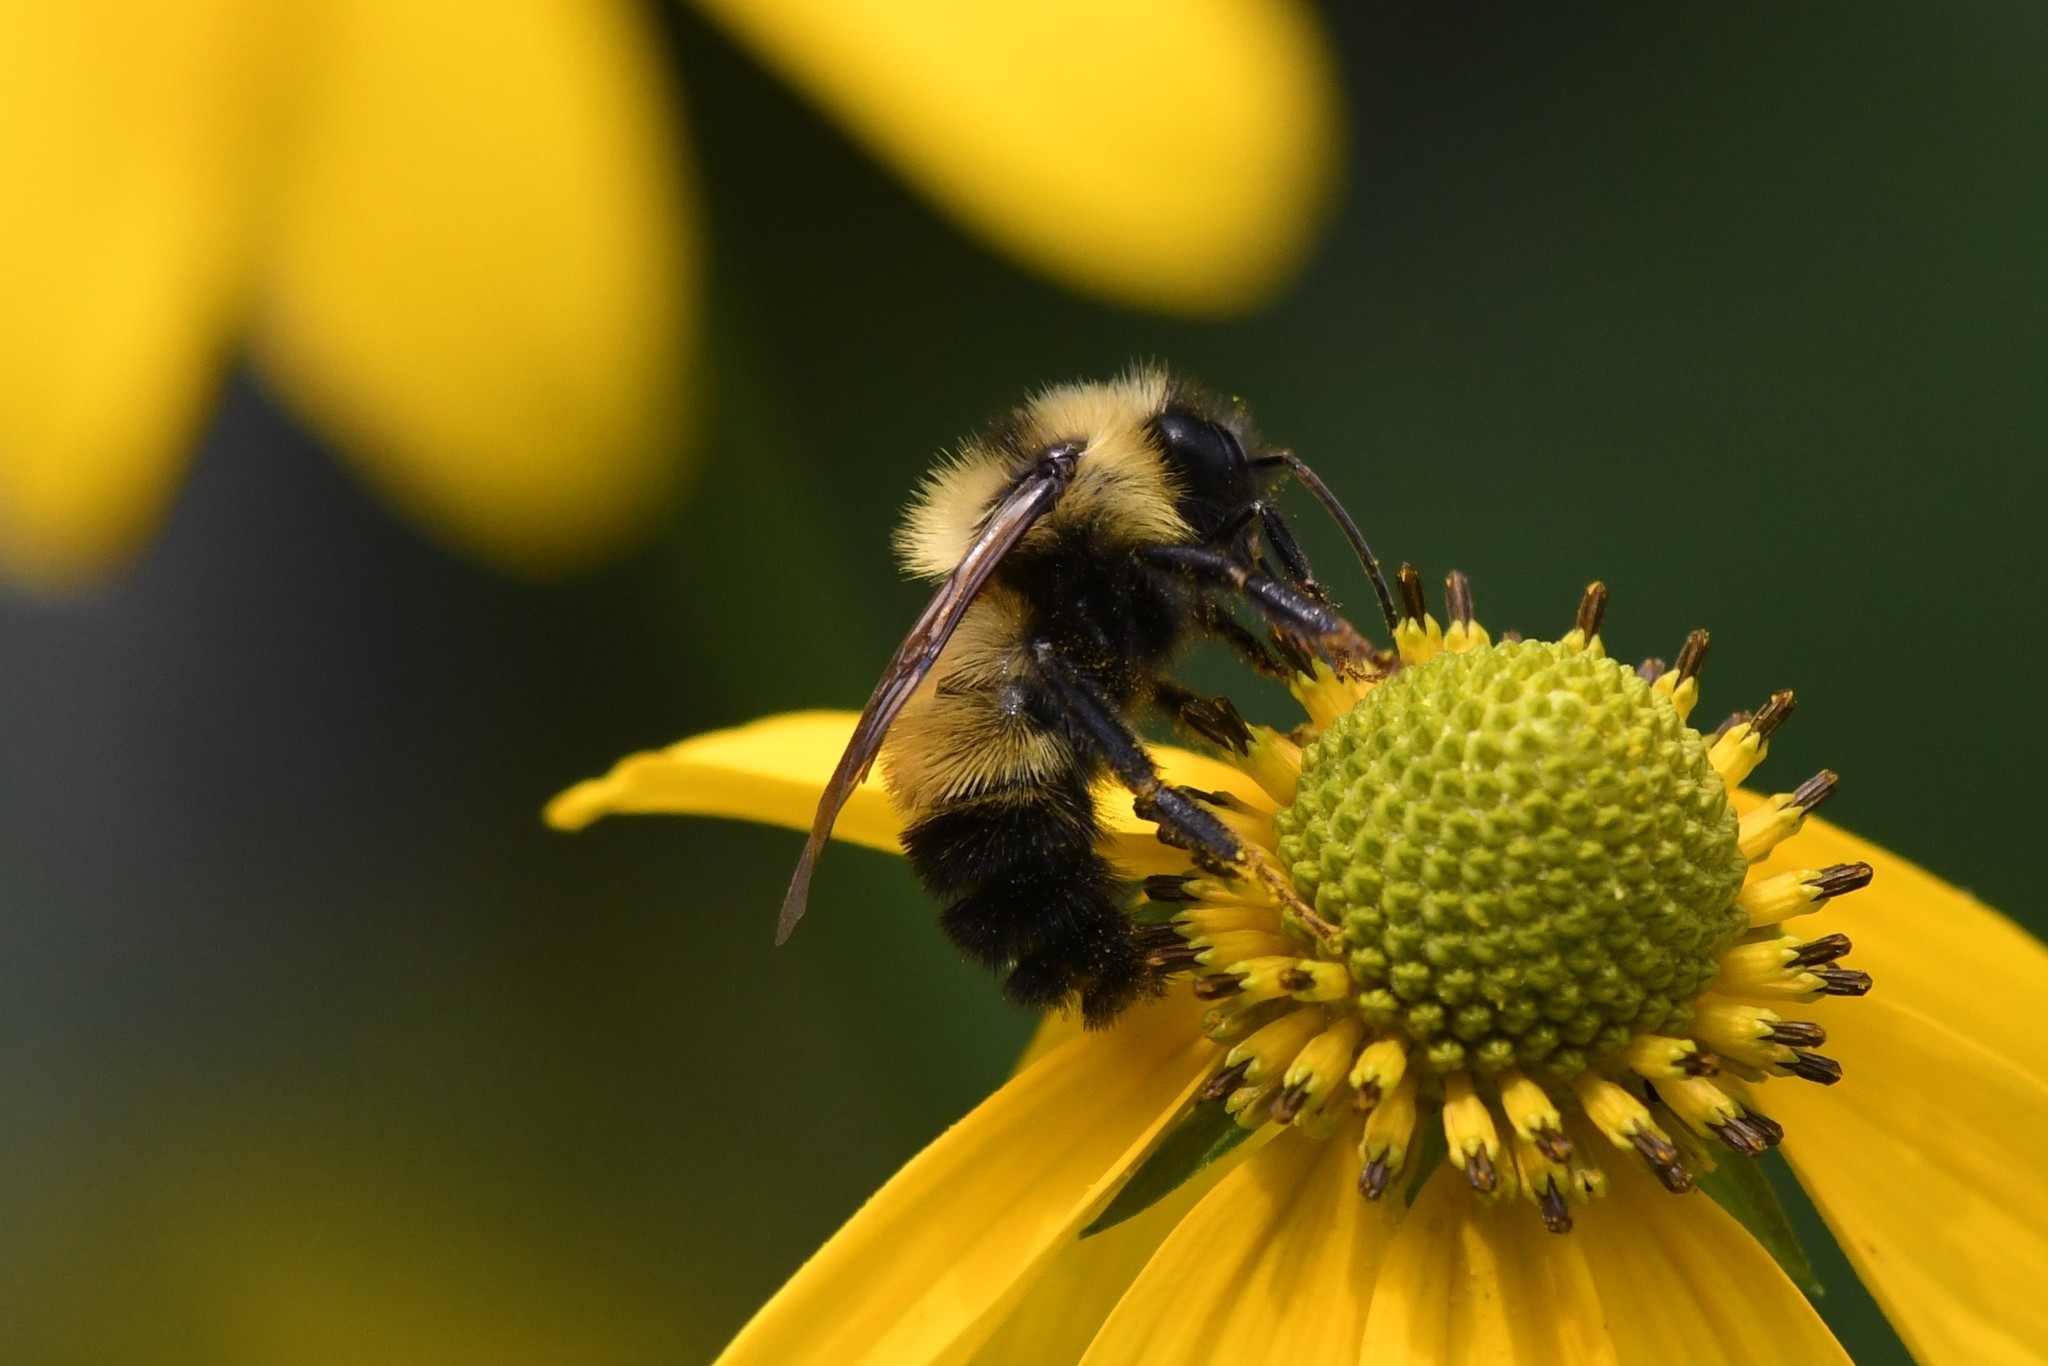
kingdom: Animalia
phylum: Arthropoda
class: Insecta
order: Hymenoptera
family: Apidae
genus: Bombus
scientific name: Bombus citrinus
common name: Lemon cuckoo bumble bee
